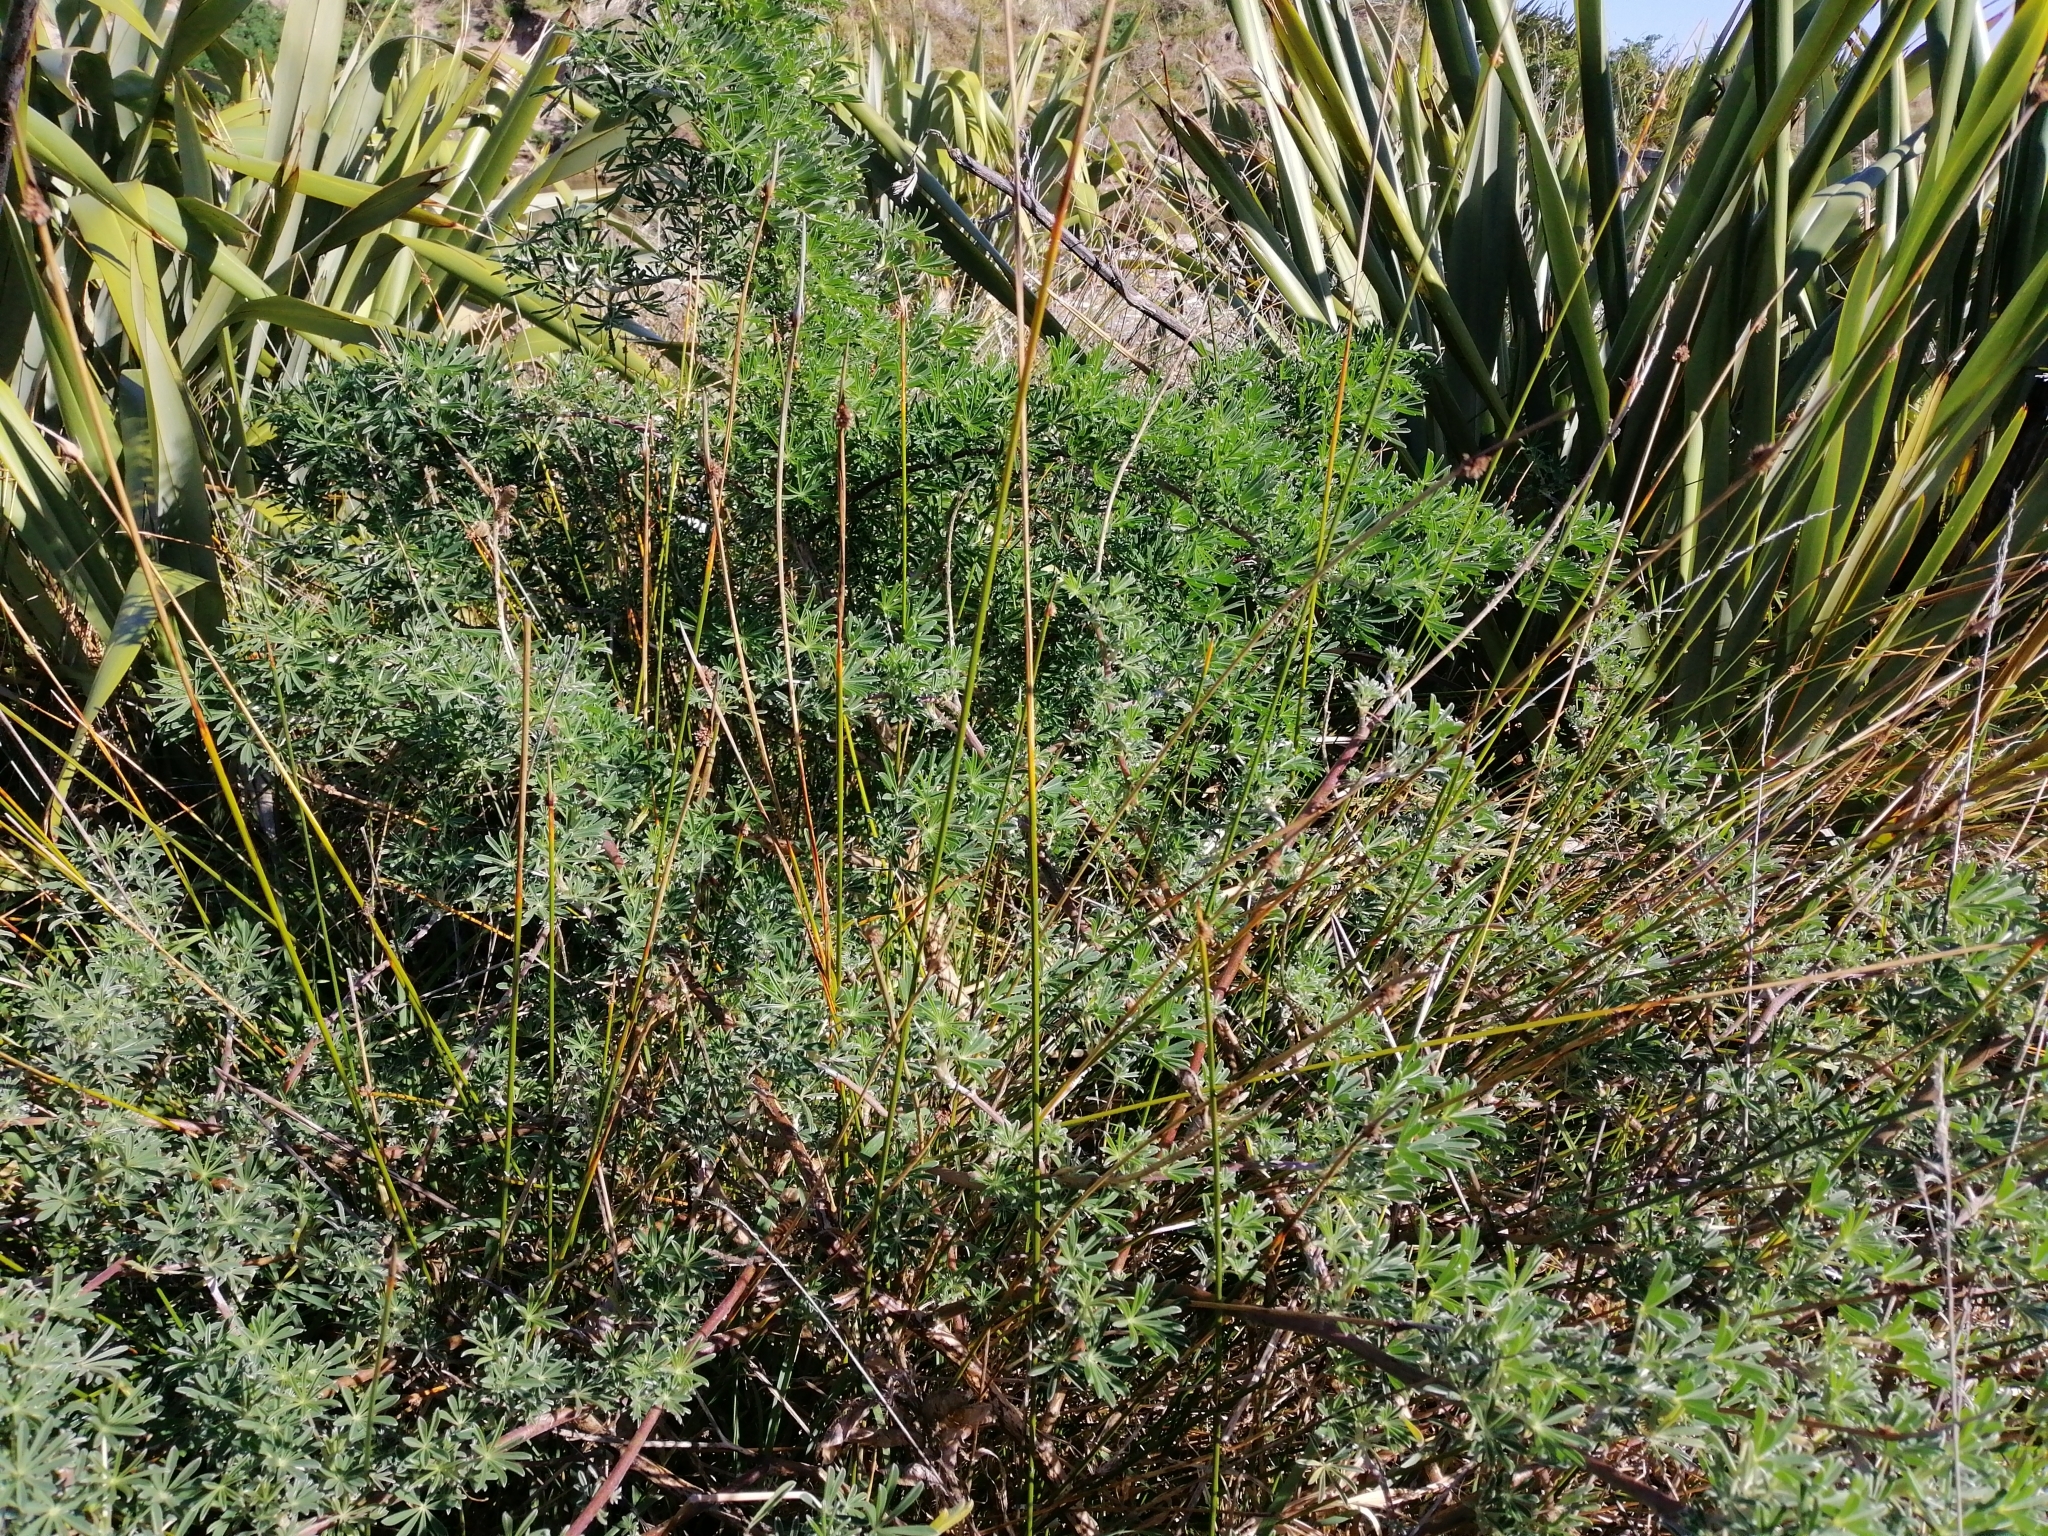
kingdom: Plantae
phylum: Tracheophyta
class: Liliopsida
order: Poales
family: Cyperaceae
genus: Ficinia
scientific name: Ficinia nodosa
